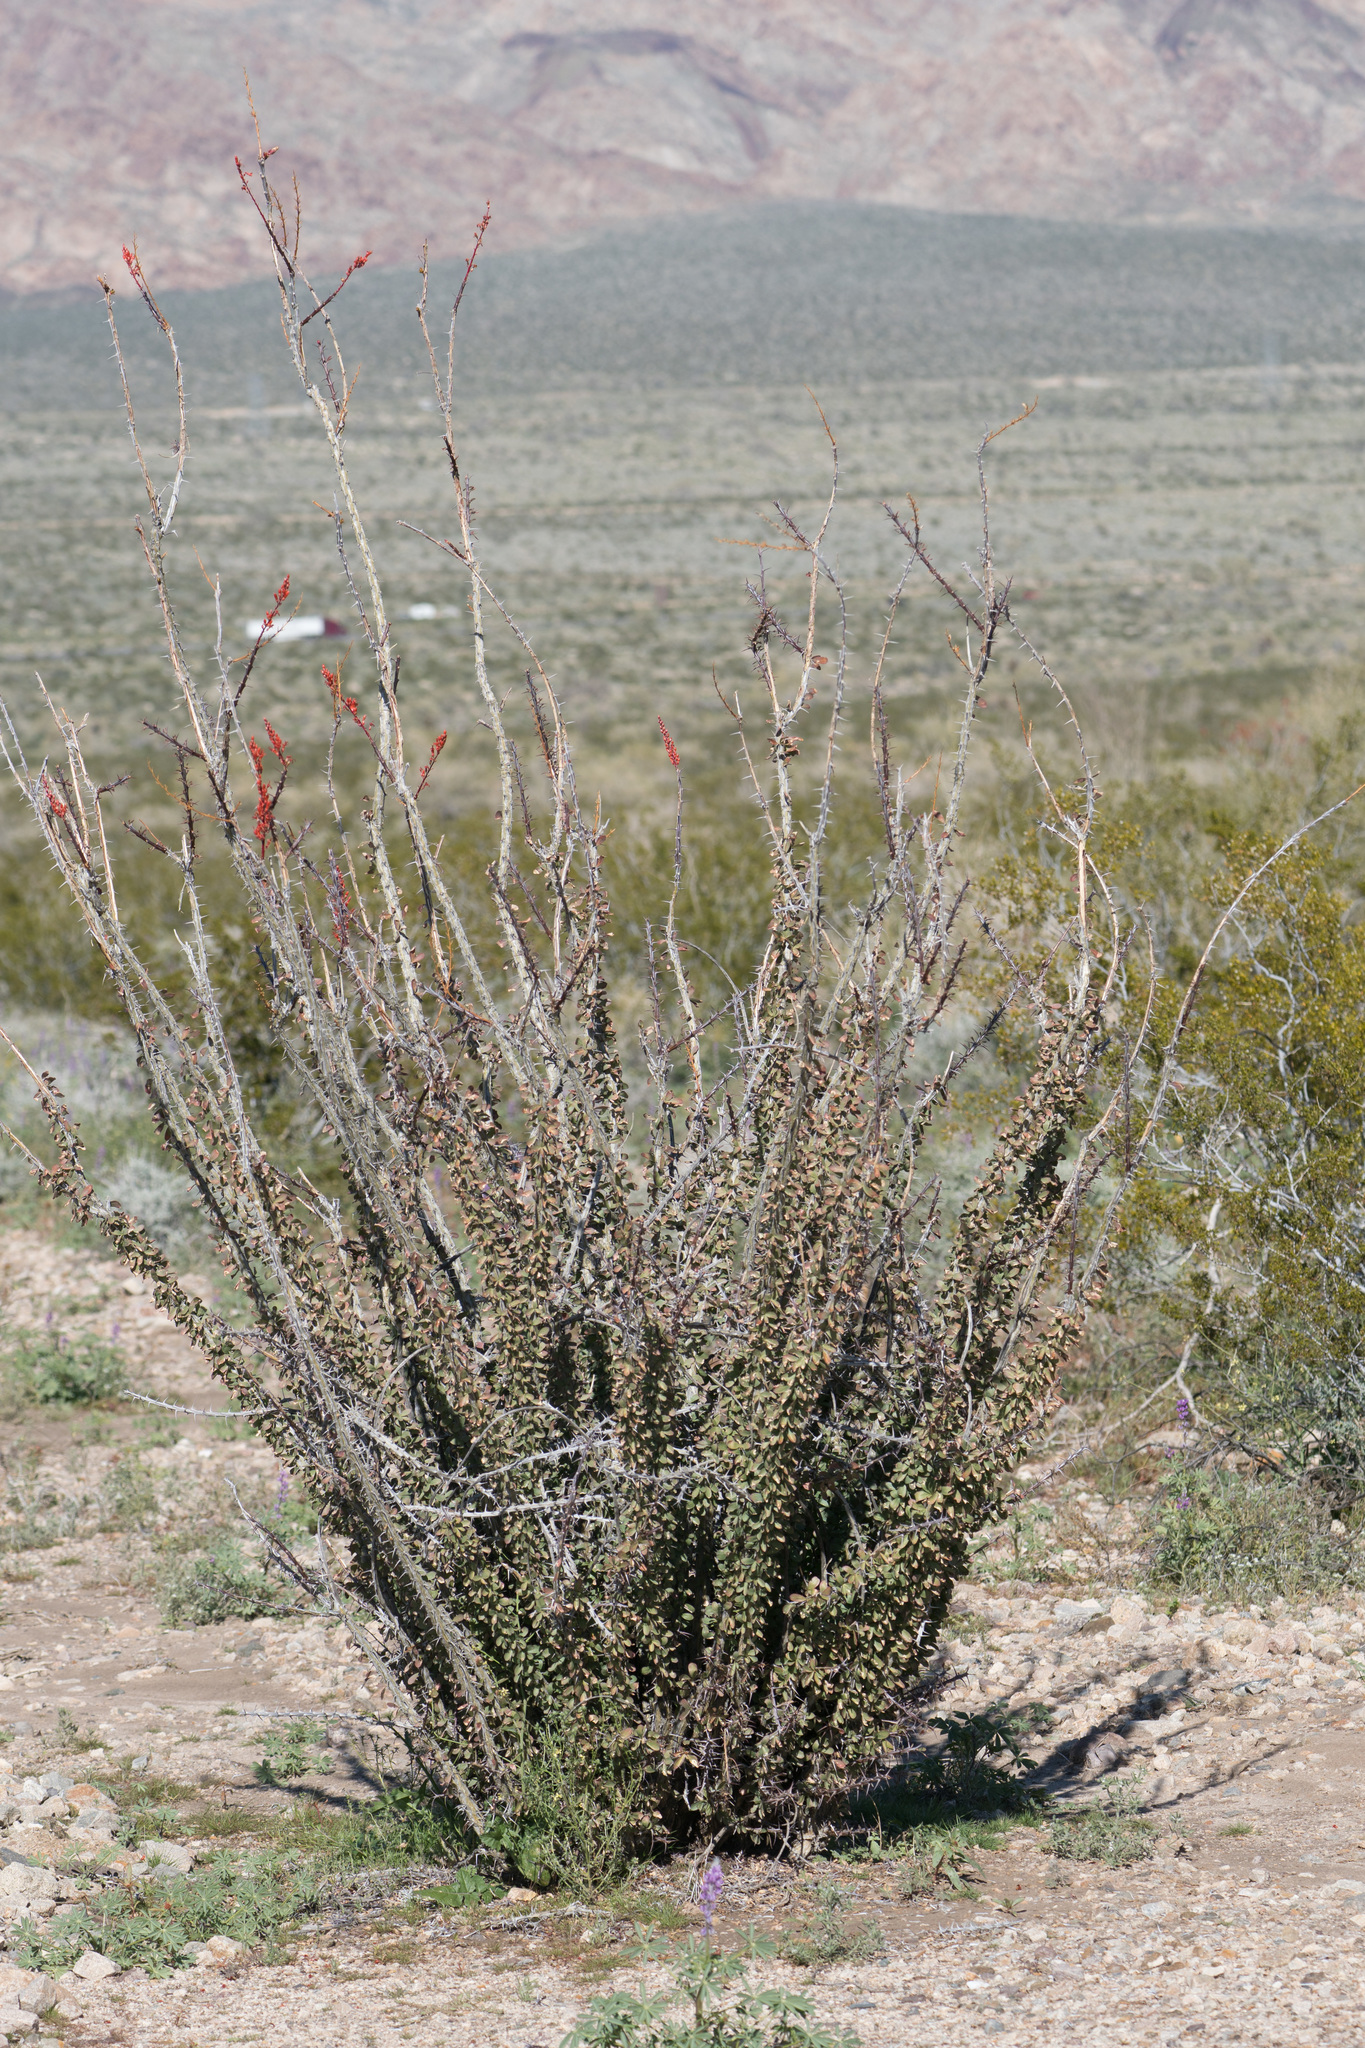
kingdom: Plantae
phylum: Tracheophyta
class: Magnoliopsida
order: Ericales
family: Fouquieriaceae
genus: Fouquieria
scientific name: Fouquieria splendens
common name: Vine-cactus
